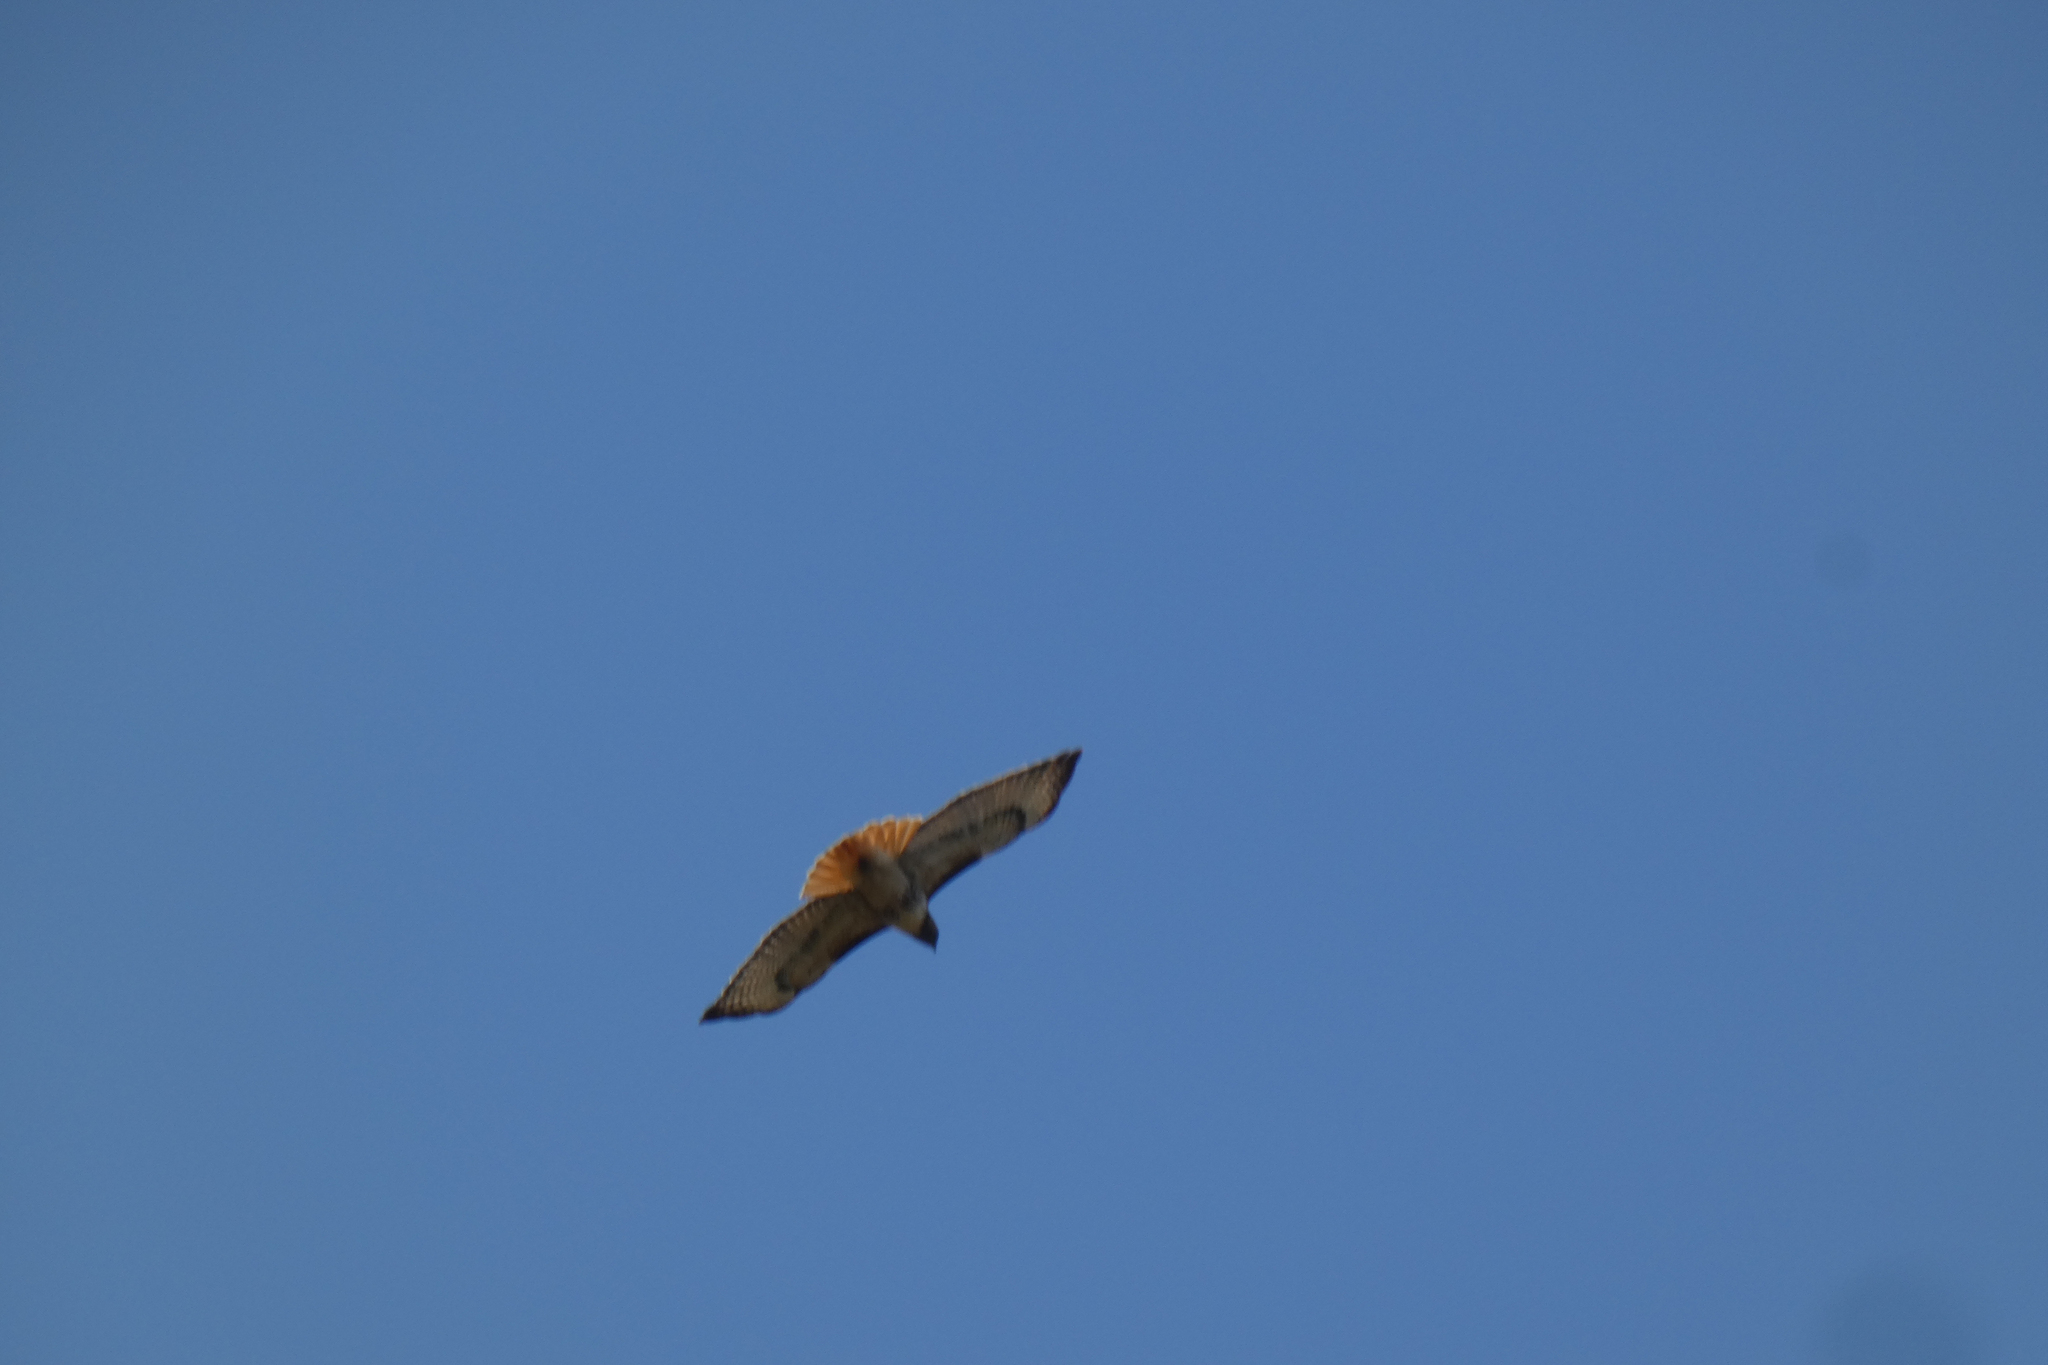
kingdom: Animalia
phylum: Chordata
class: Aves
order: Accipitriformes
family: Accipitridae
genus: Buteo
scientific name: Buteo jamaicensis
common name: Red-tailed hawk
